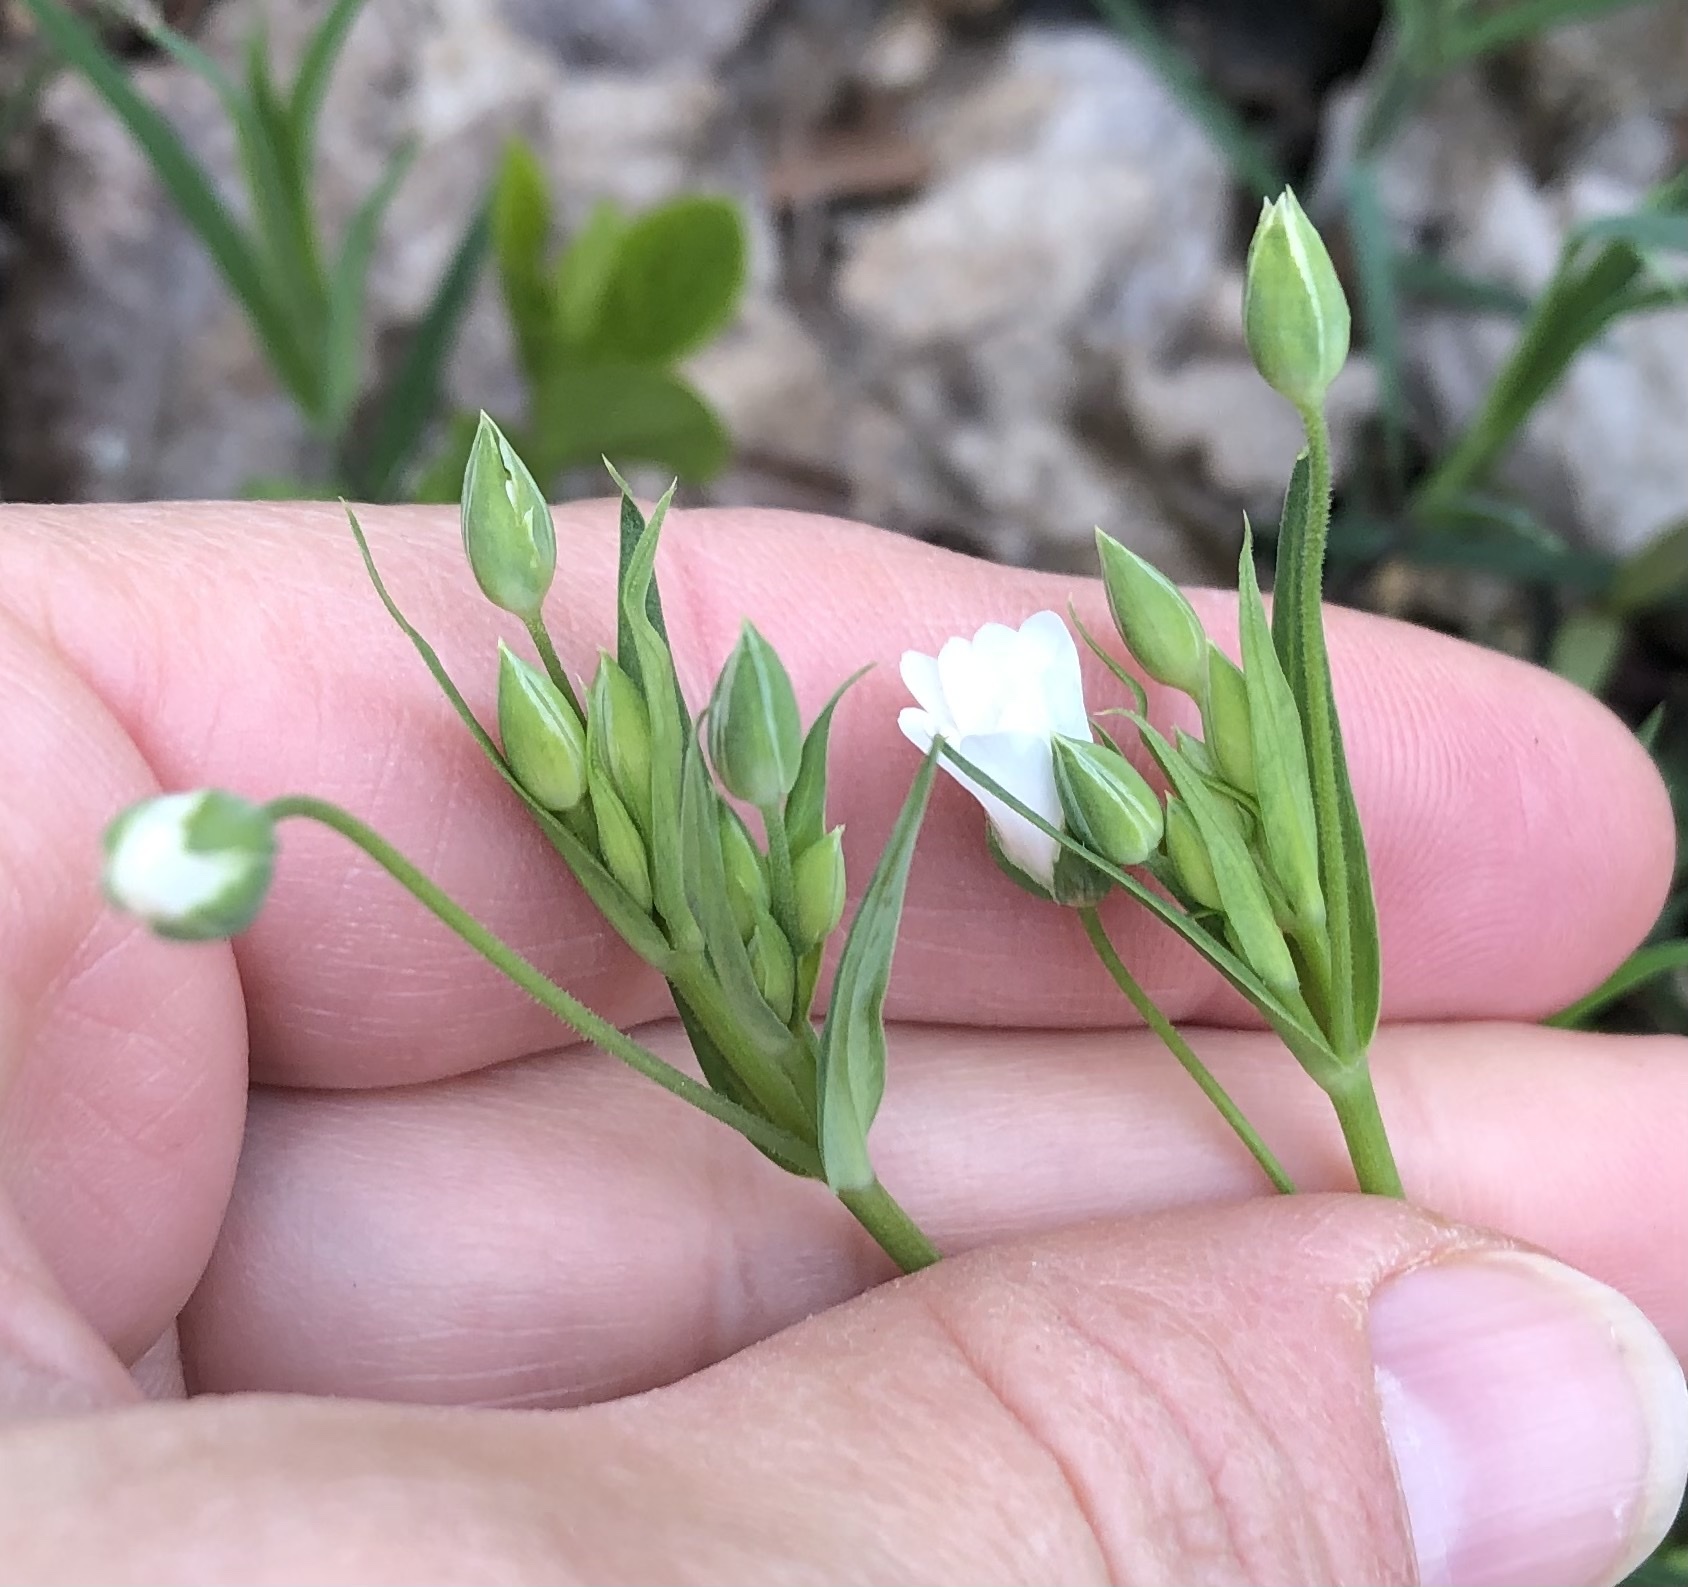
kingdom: Plantae
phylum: Tracheophyta
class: Magnoliopsida
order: Caryophyllales
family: Caryophyllaceae
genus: Rabelera
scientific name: Rabelera holostea
